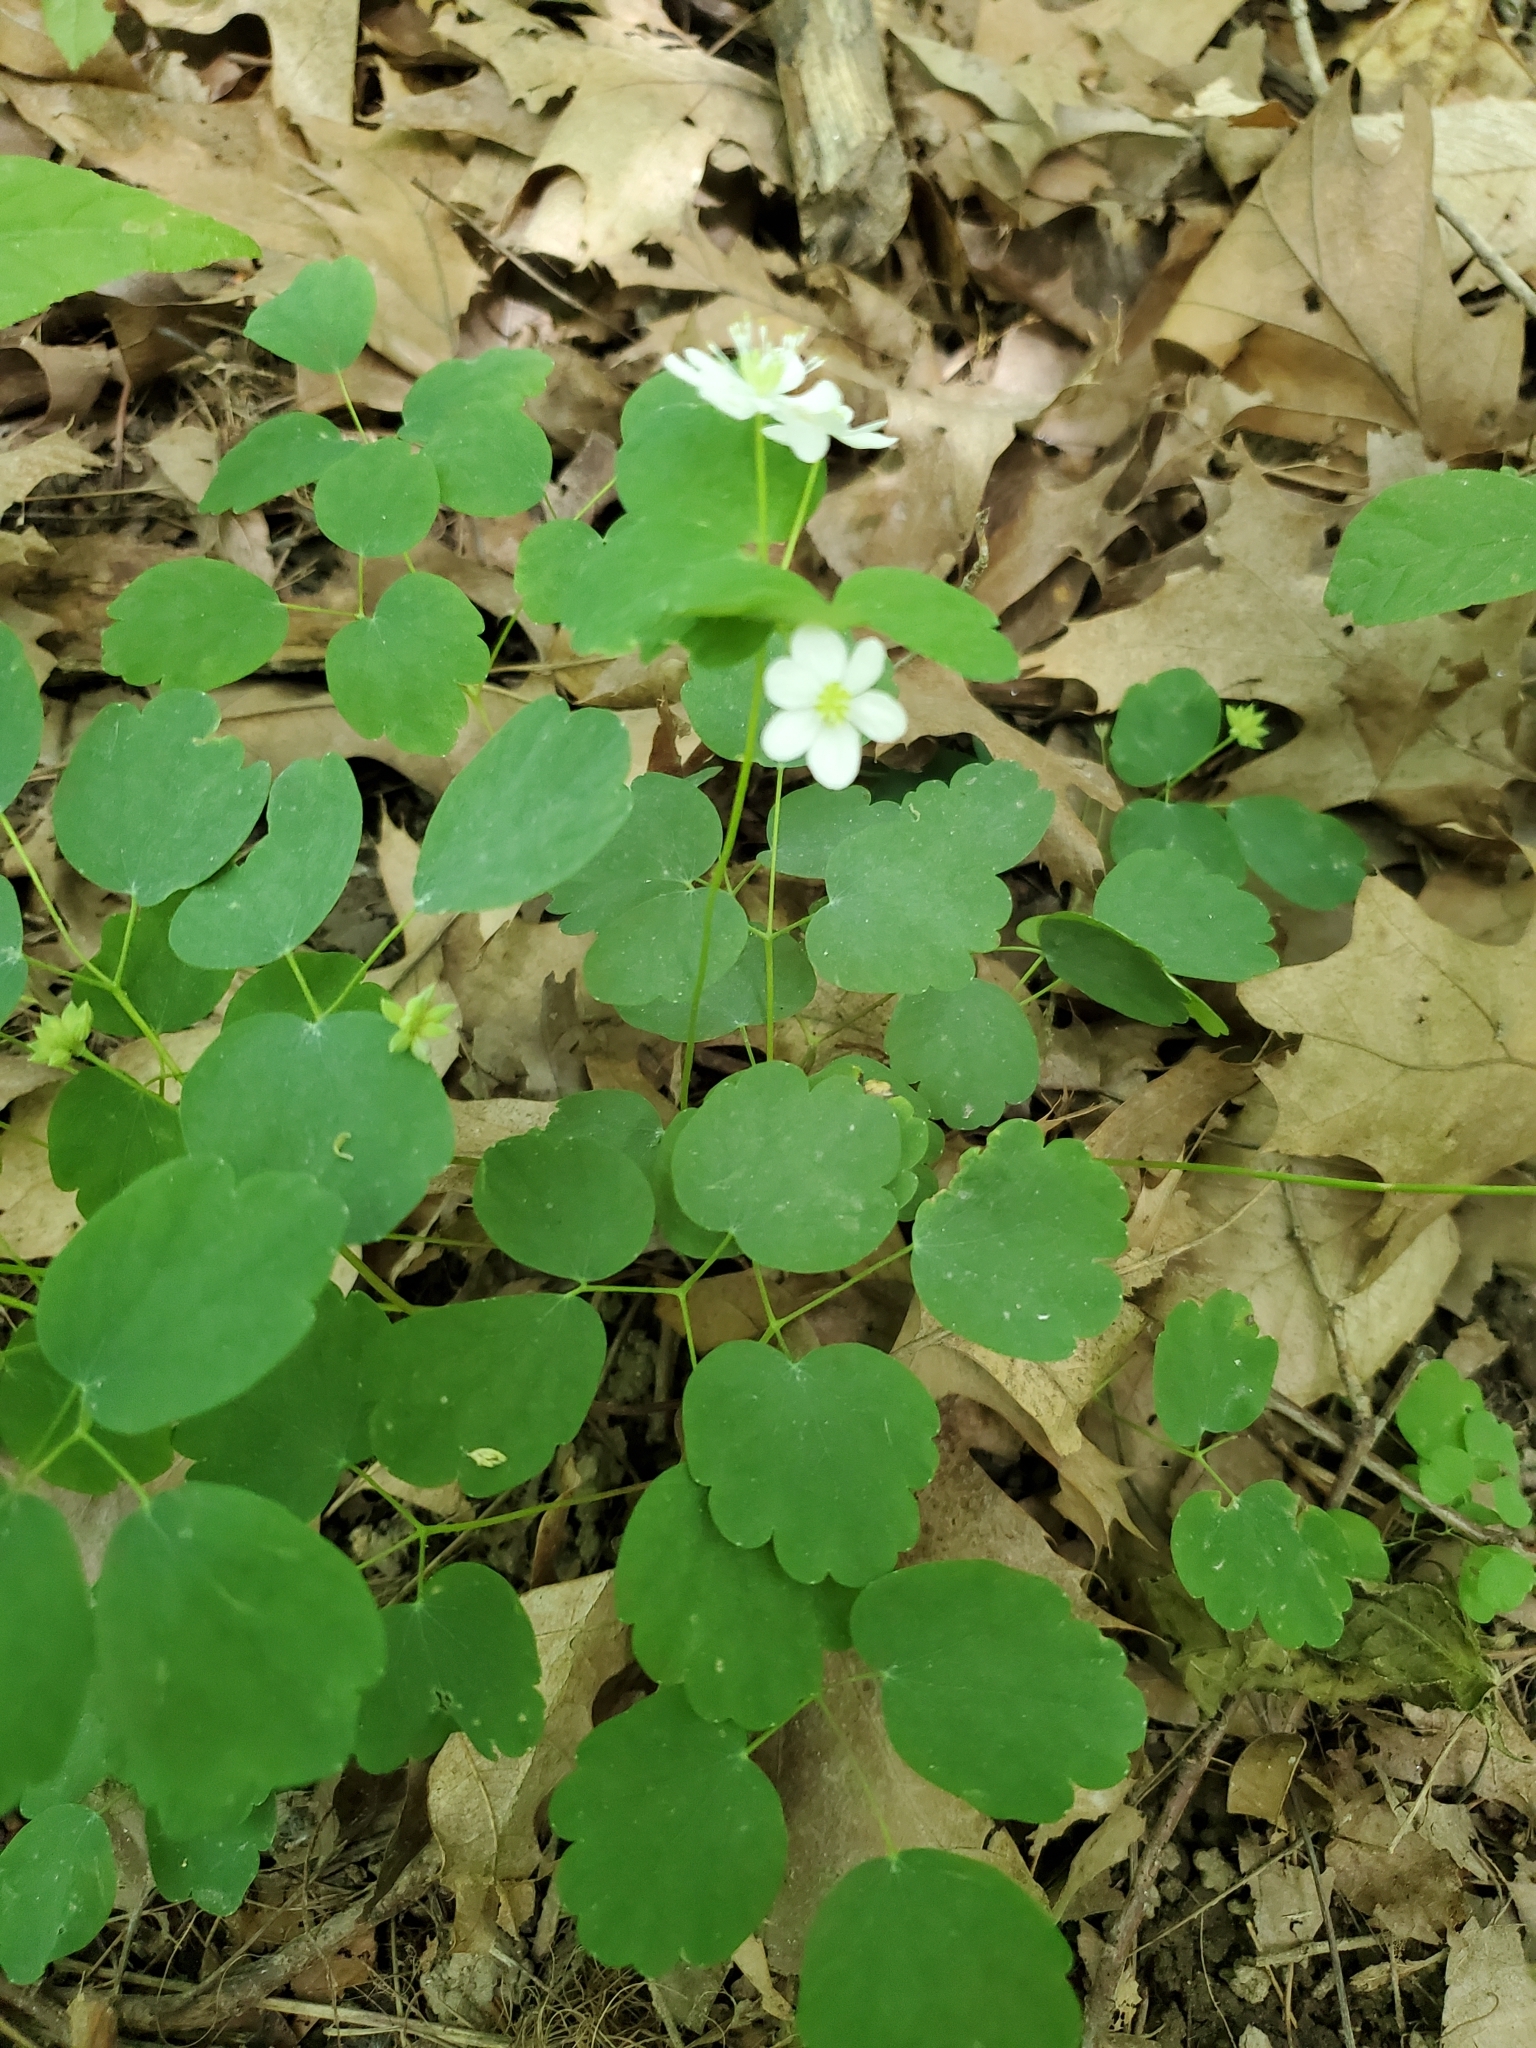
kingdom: Plantae
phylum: Tracheophyta
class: Magnoliopsida
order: Ranunculales
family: Ranunculaceae
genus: Thalictrum
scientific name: Thalictrum thalictroides
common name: Rue-anemone
